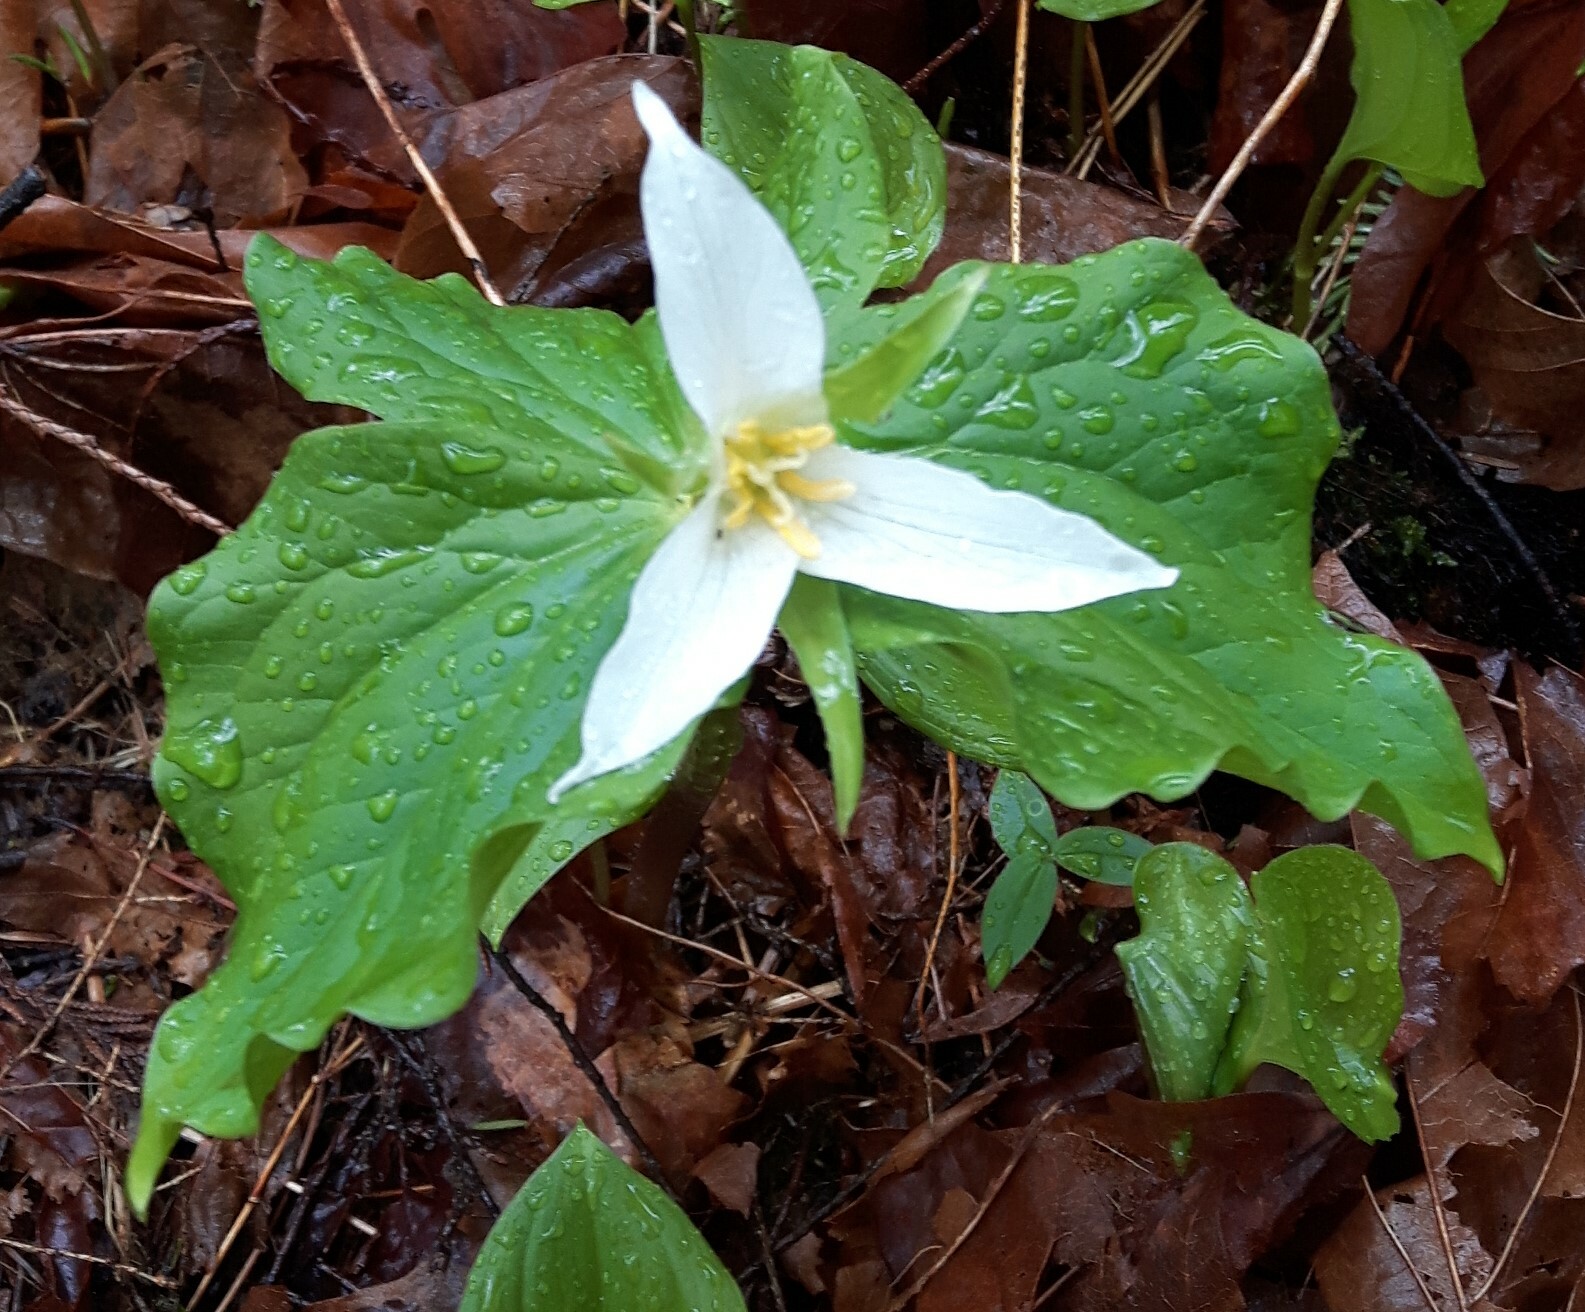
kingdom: Plantae
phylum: Tracheophyta
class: Liliopsida
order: Liliales
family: Melanthiaceae
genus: Trillium
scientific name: Trillium ovatum
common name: Pacific trillium
